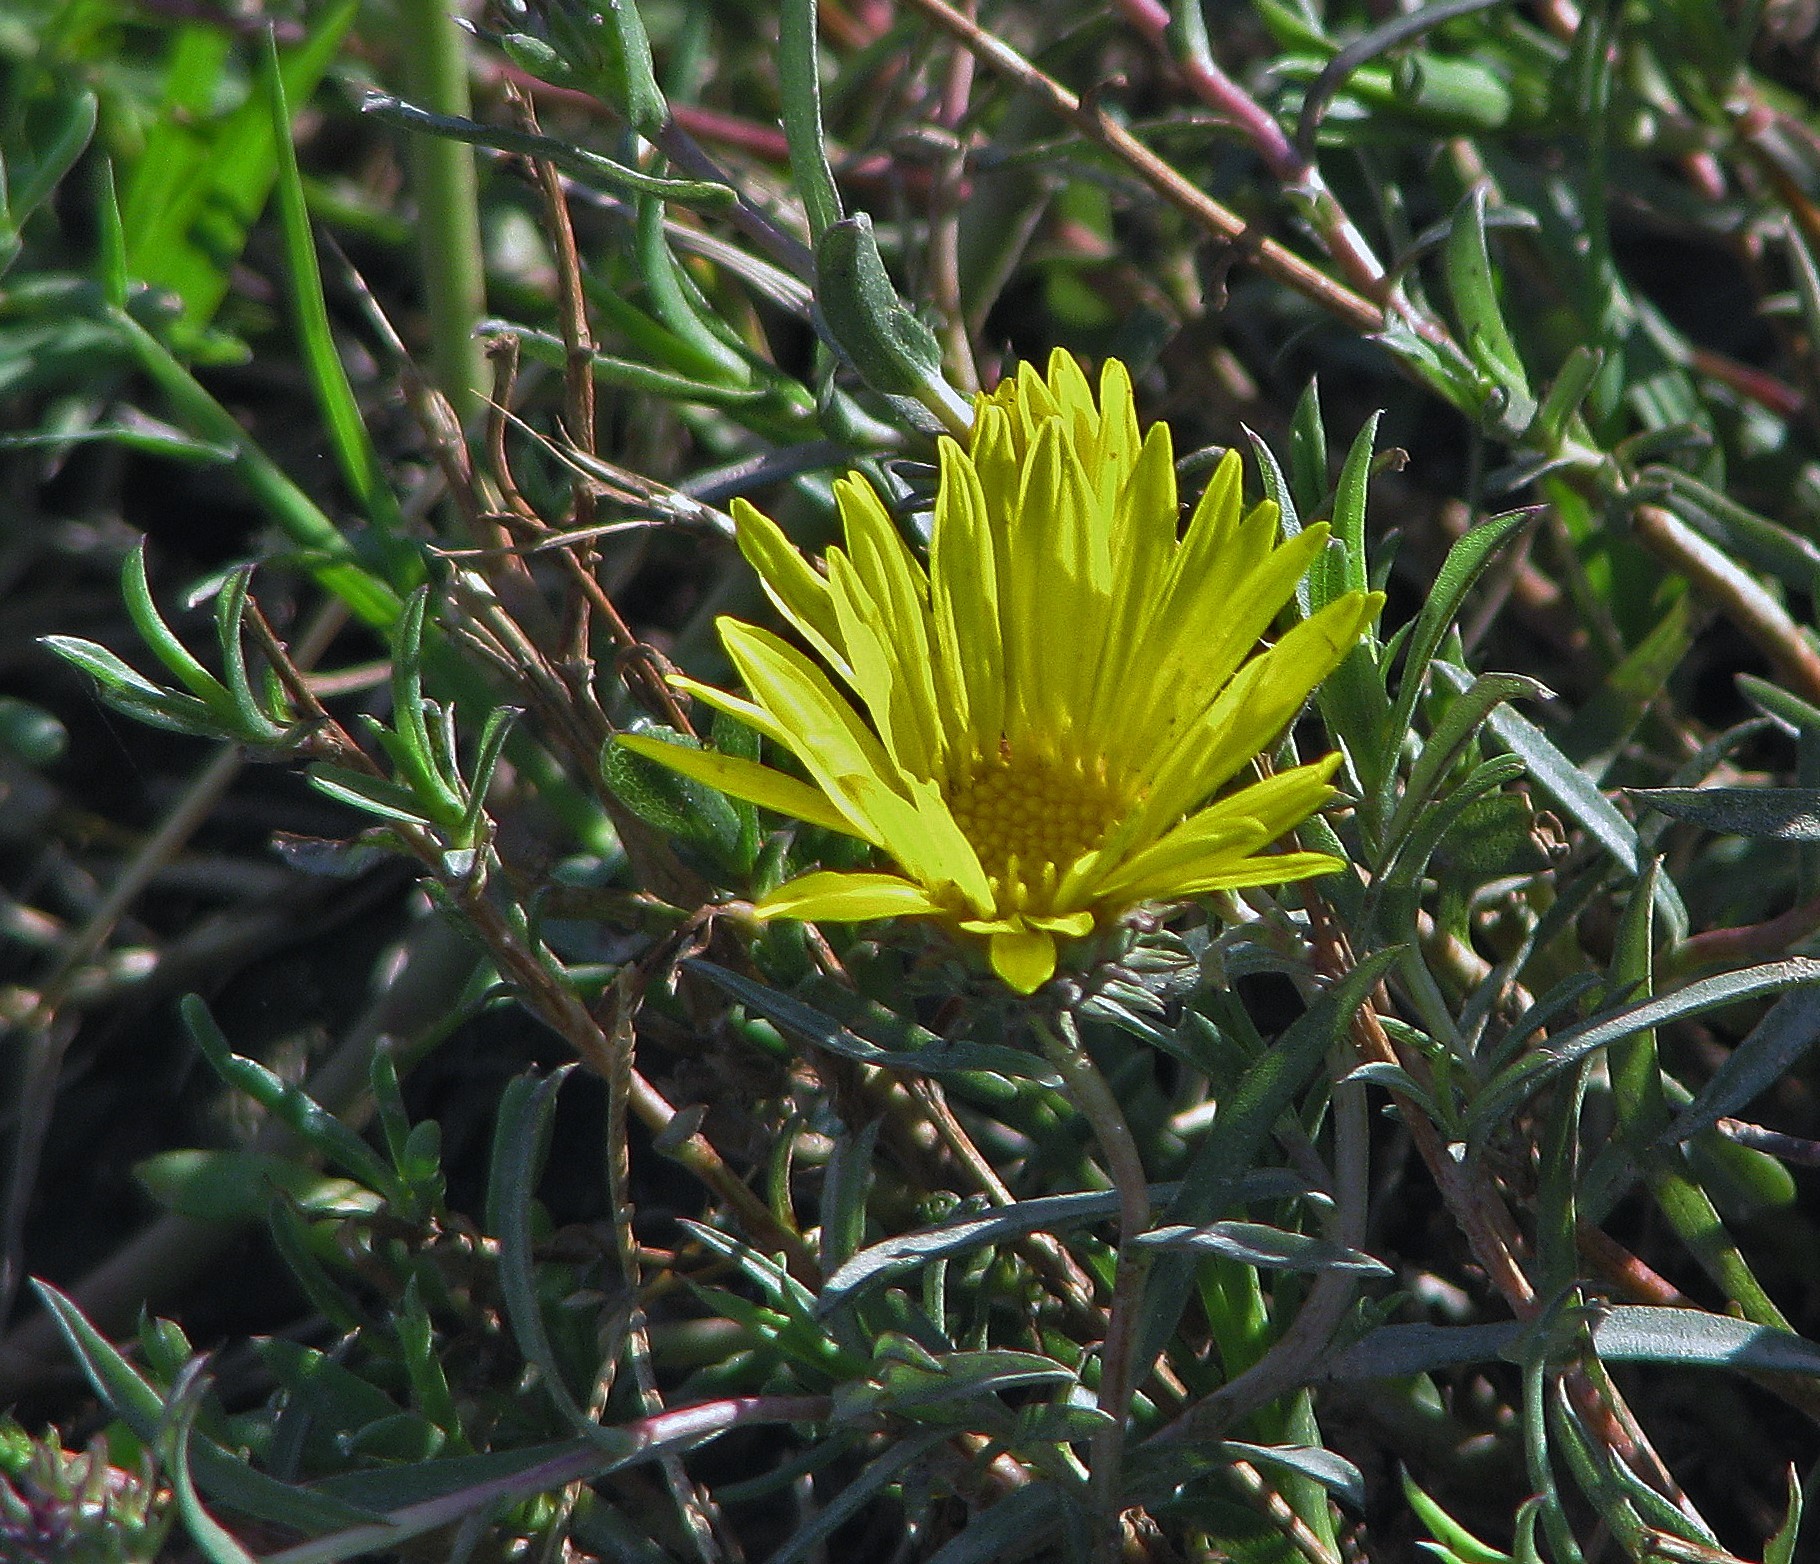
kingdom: Plantae
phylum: Tracheophyta
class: Magnoliopsida
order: Asterales
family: Asteraceae
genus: Grindelia
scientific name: Grindelia scorzonerifolia
